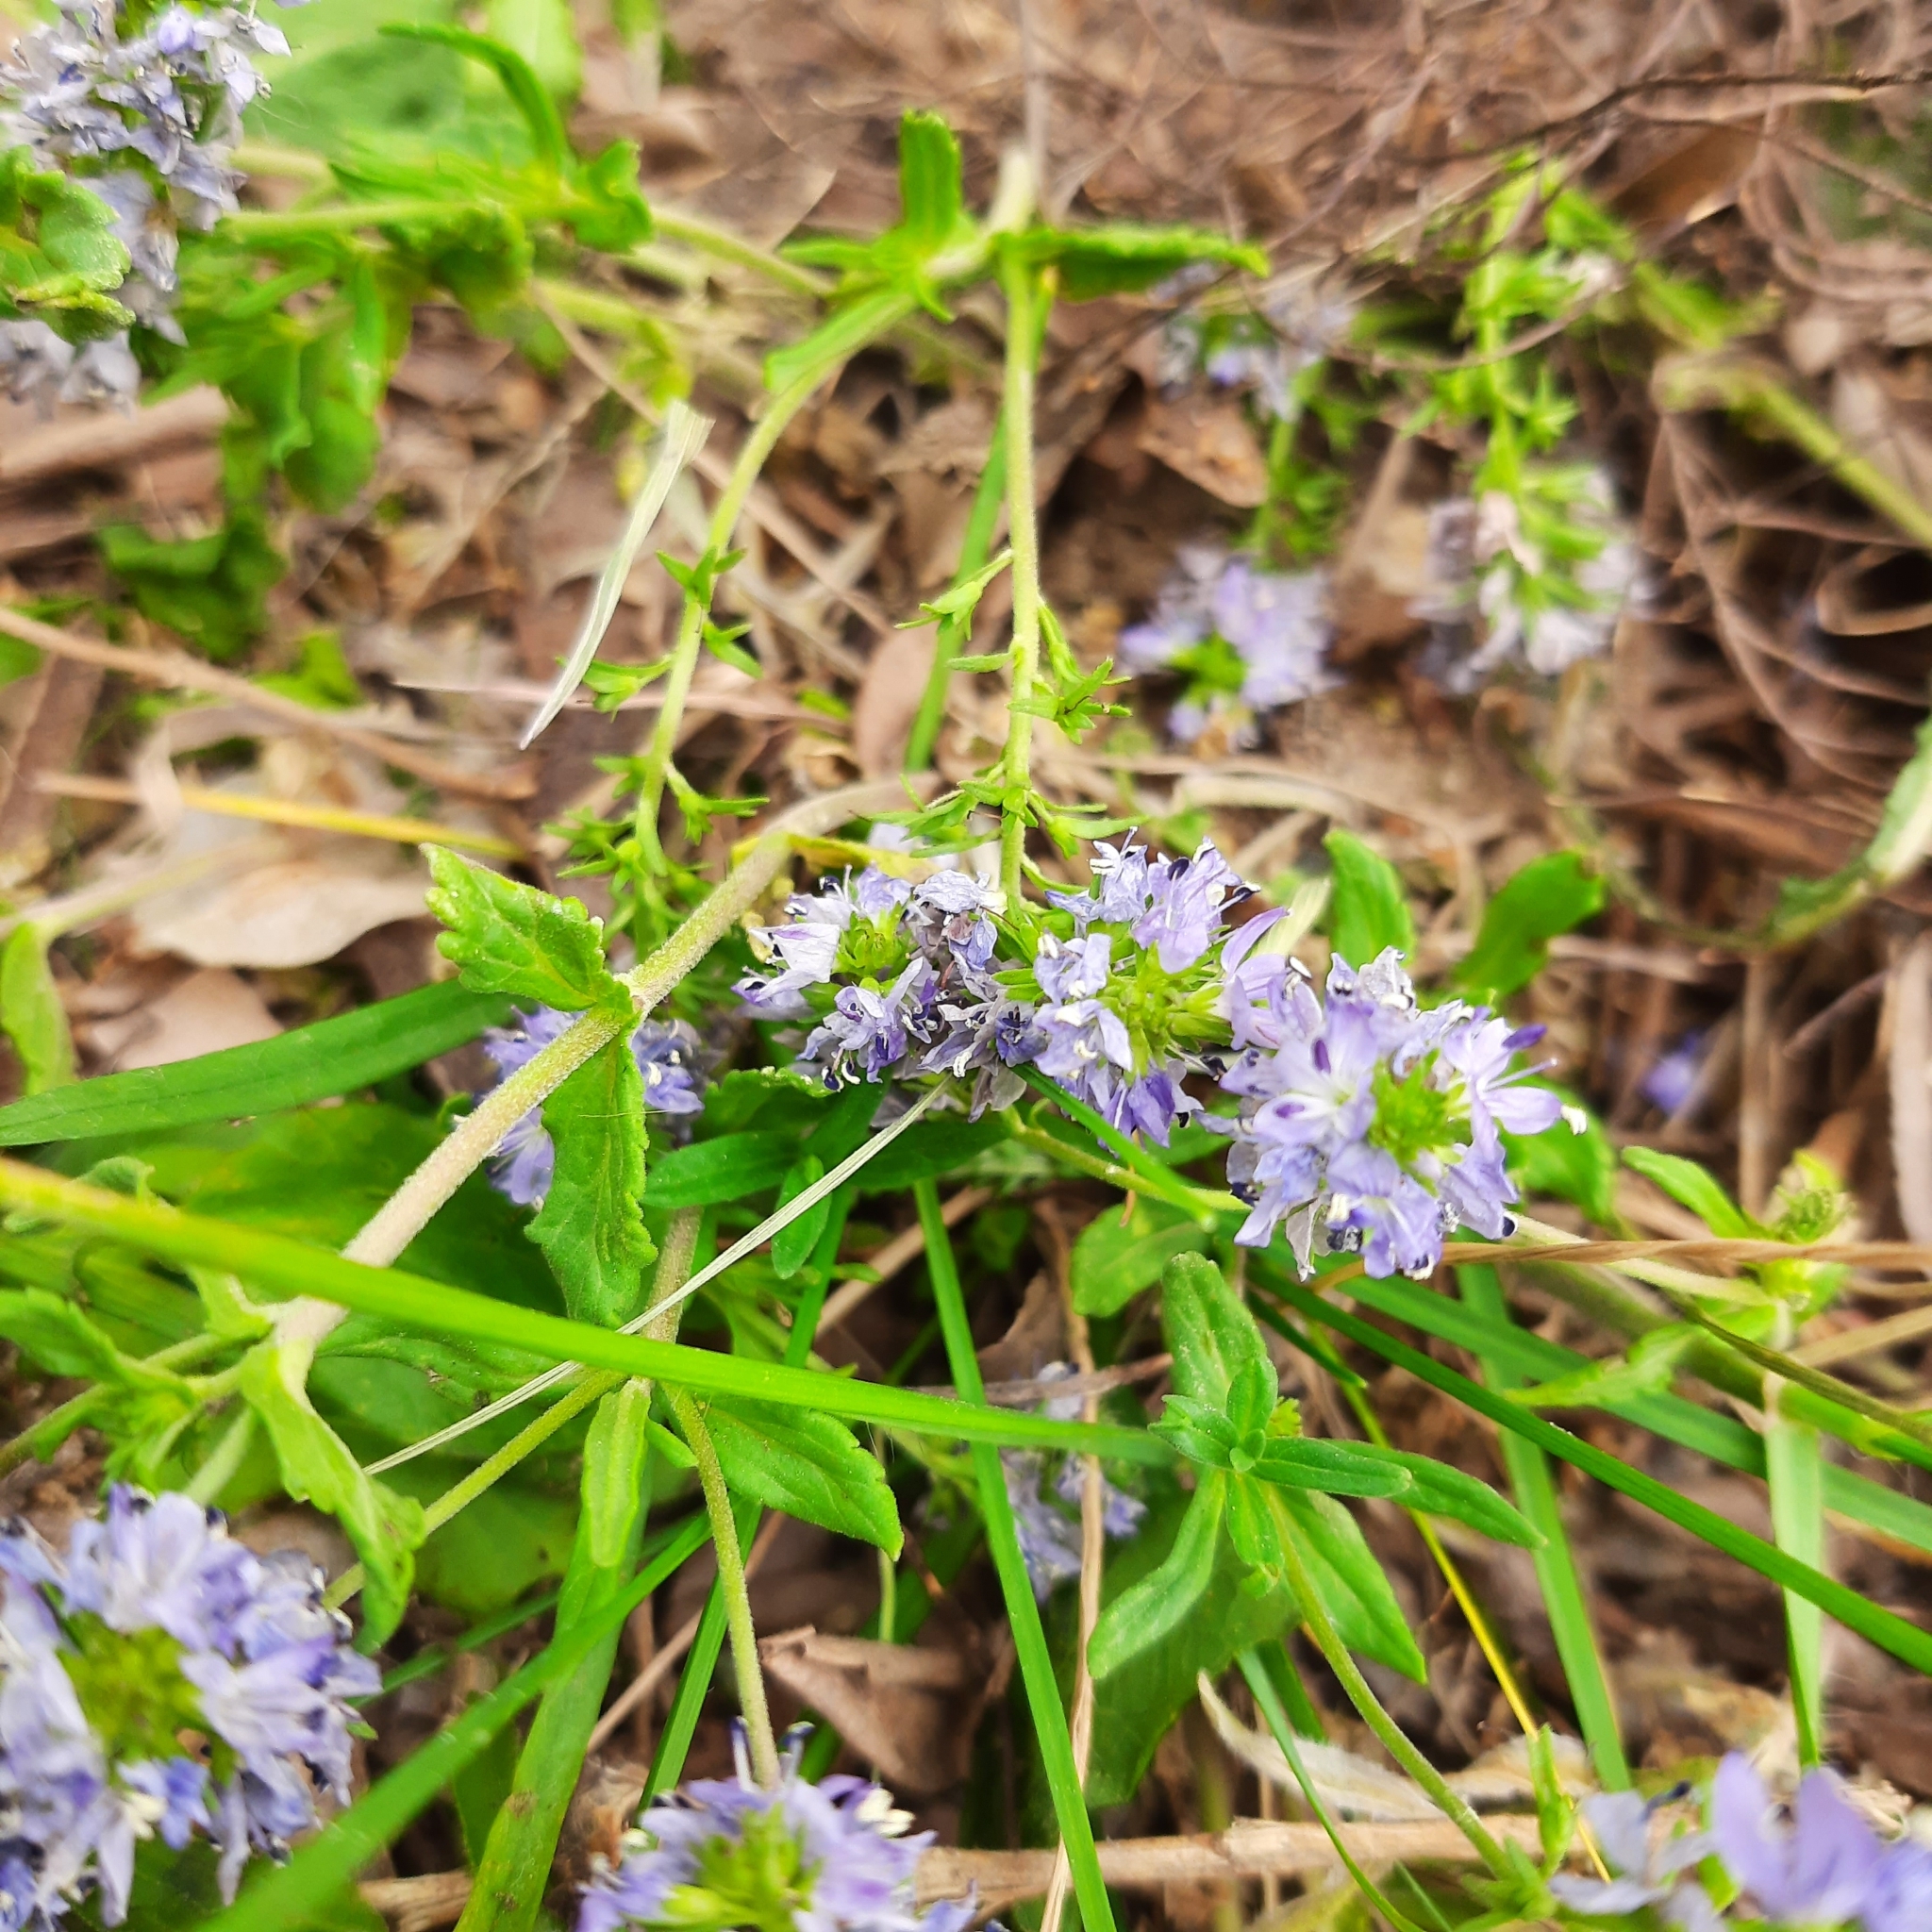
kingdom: Plantae
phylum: Tracheophyta
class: Magnoliopsida
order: Lamiales
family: Plantaginaceae
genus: Veronica
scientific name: Veronica prostrata
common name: Prostrate speedwell
